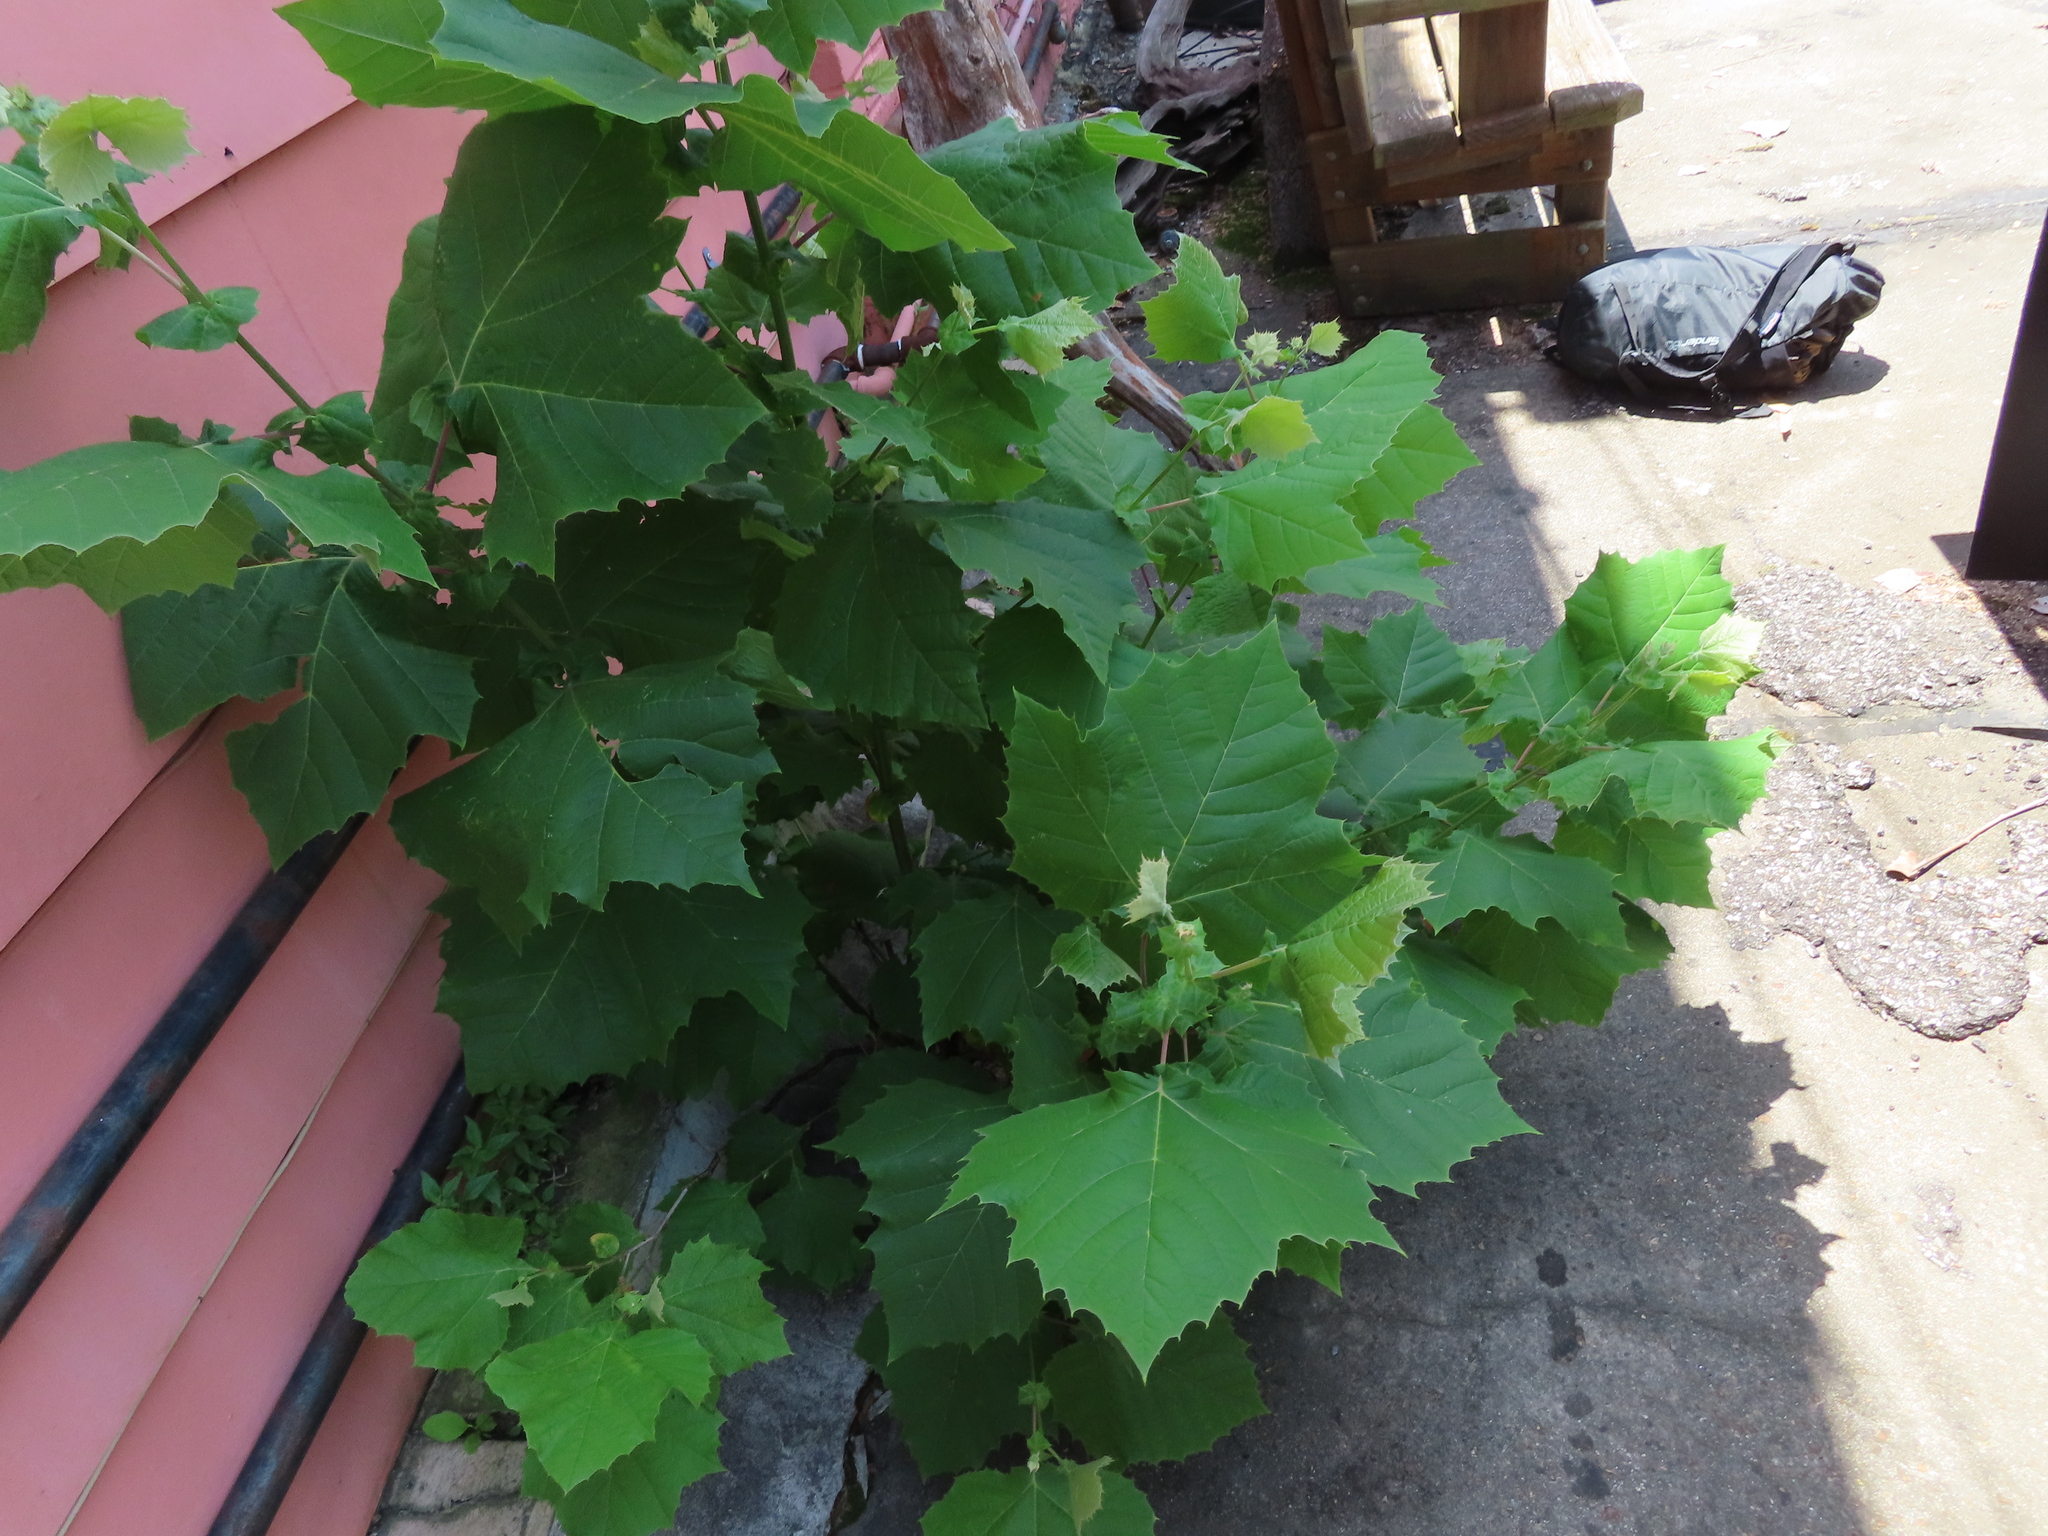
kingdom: Plantae
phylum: Tracheophyta
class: Magnoliopsida
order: Proteales
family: Platanaceae
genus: Platanus
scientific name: Platanus occidentalis
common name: American sycamore
